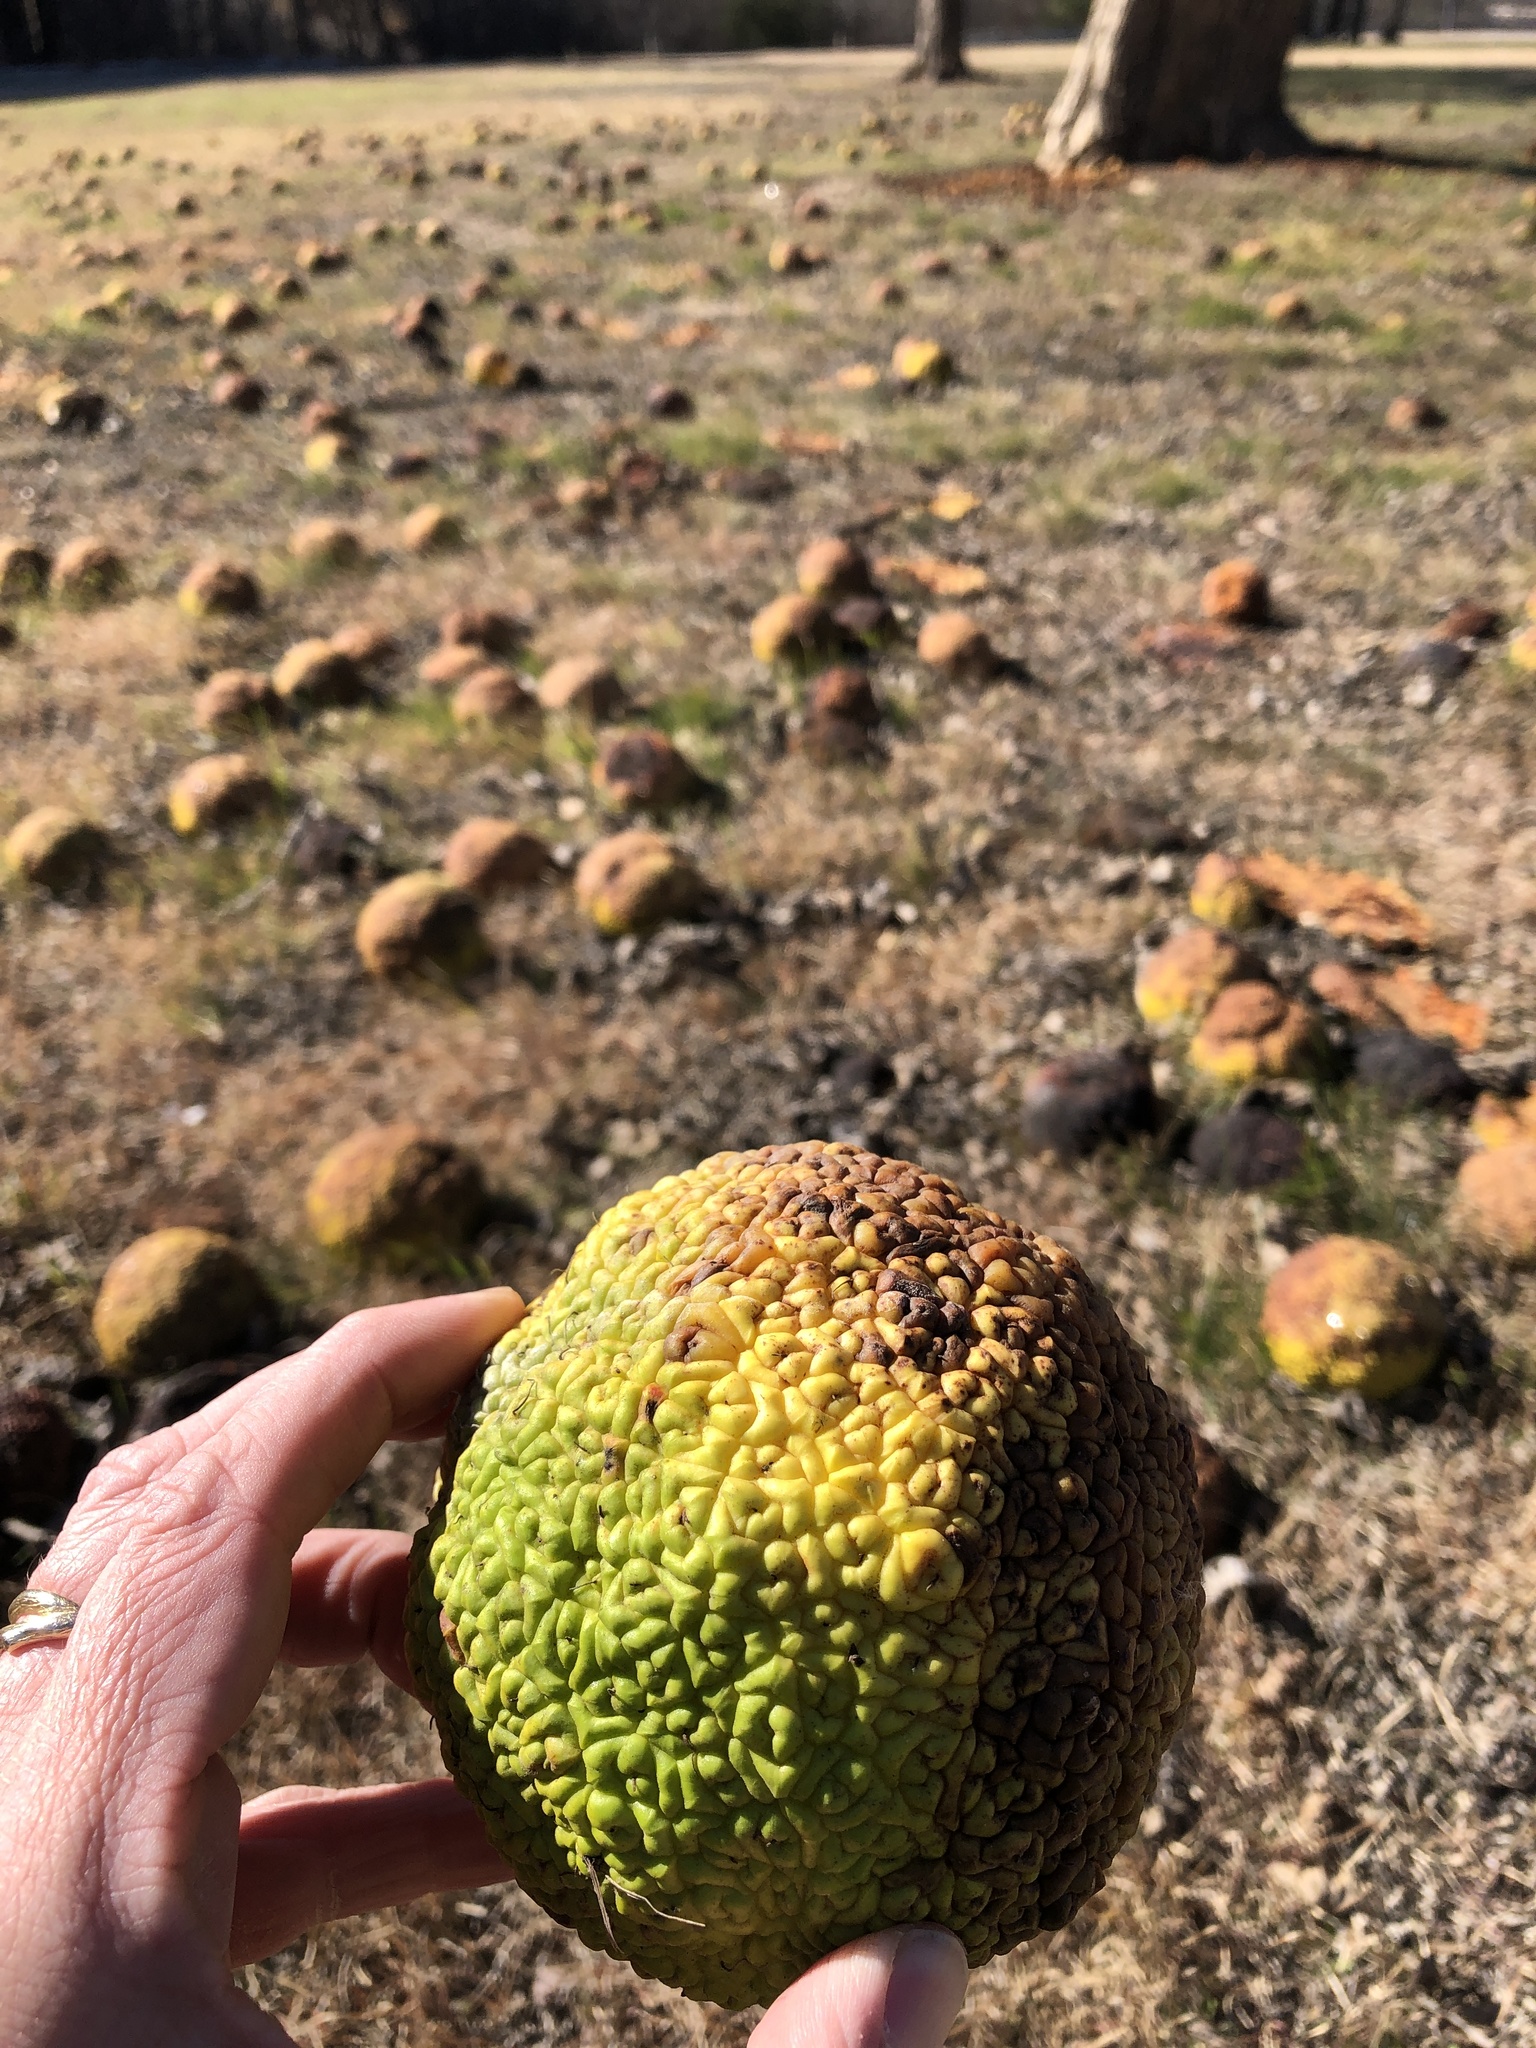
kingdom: Plantae
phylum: Tracheophyta
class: Magnoliopsida
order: Rosales
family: Moraceae
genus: Maclura
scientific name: Maclura pomifera
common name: Osage-orange
